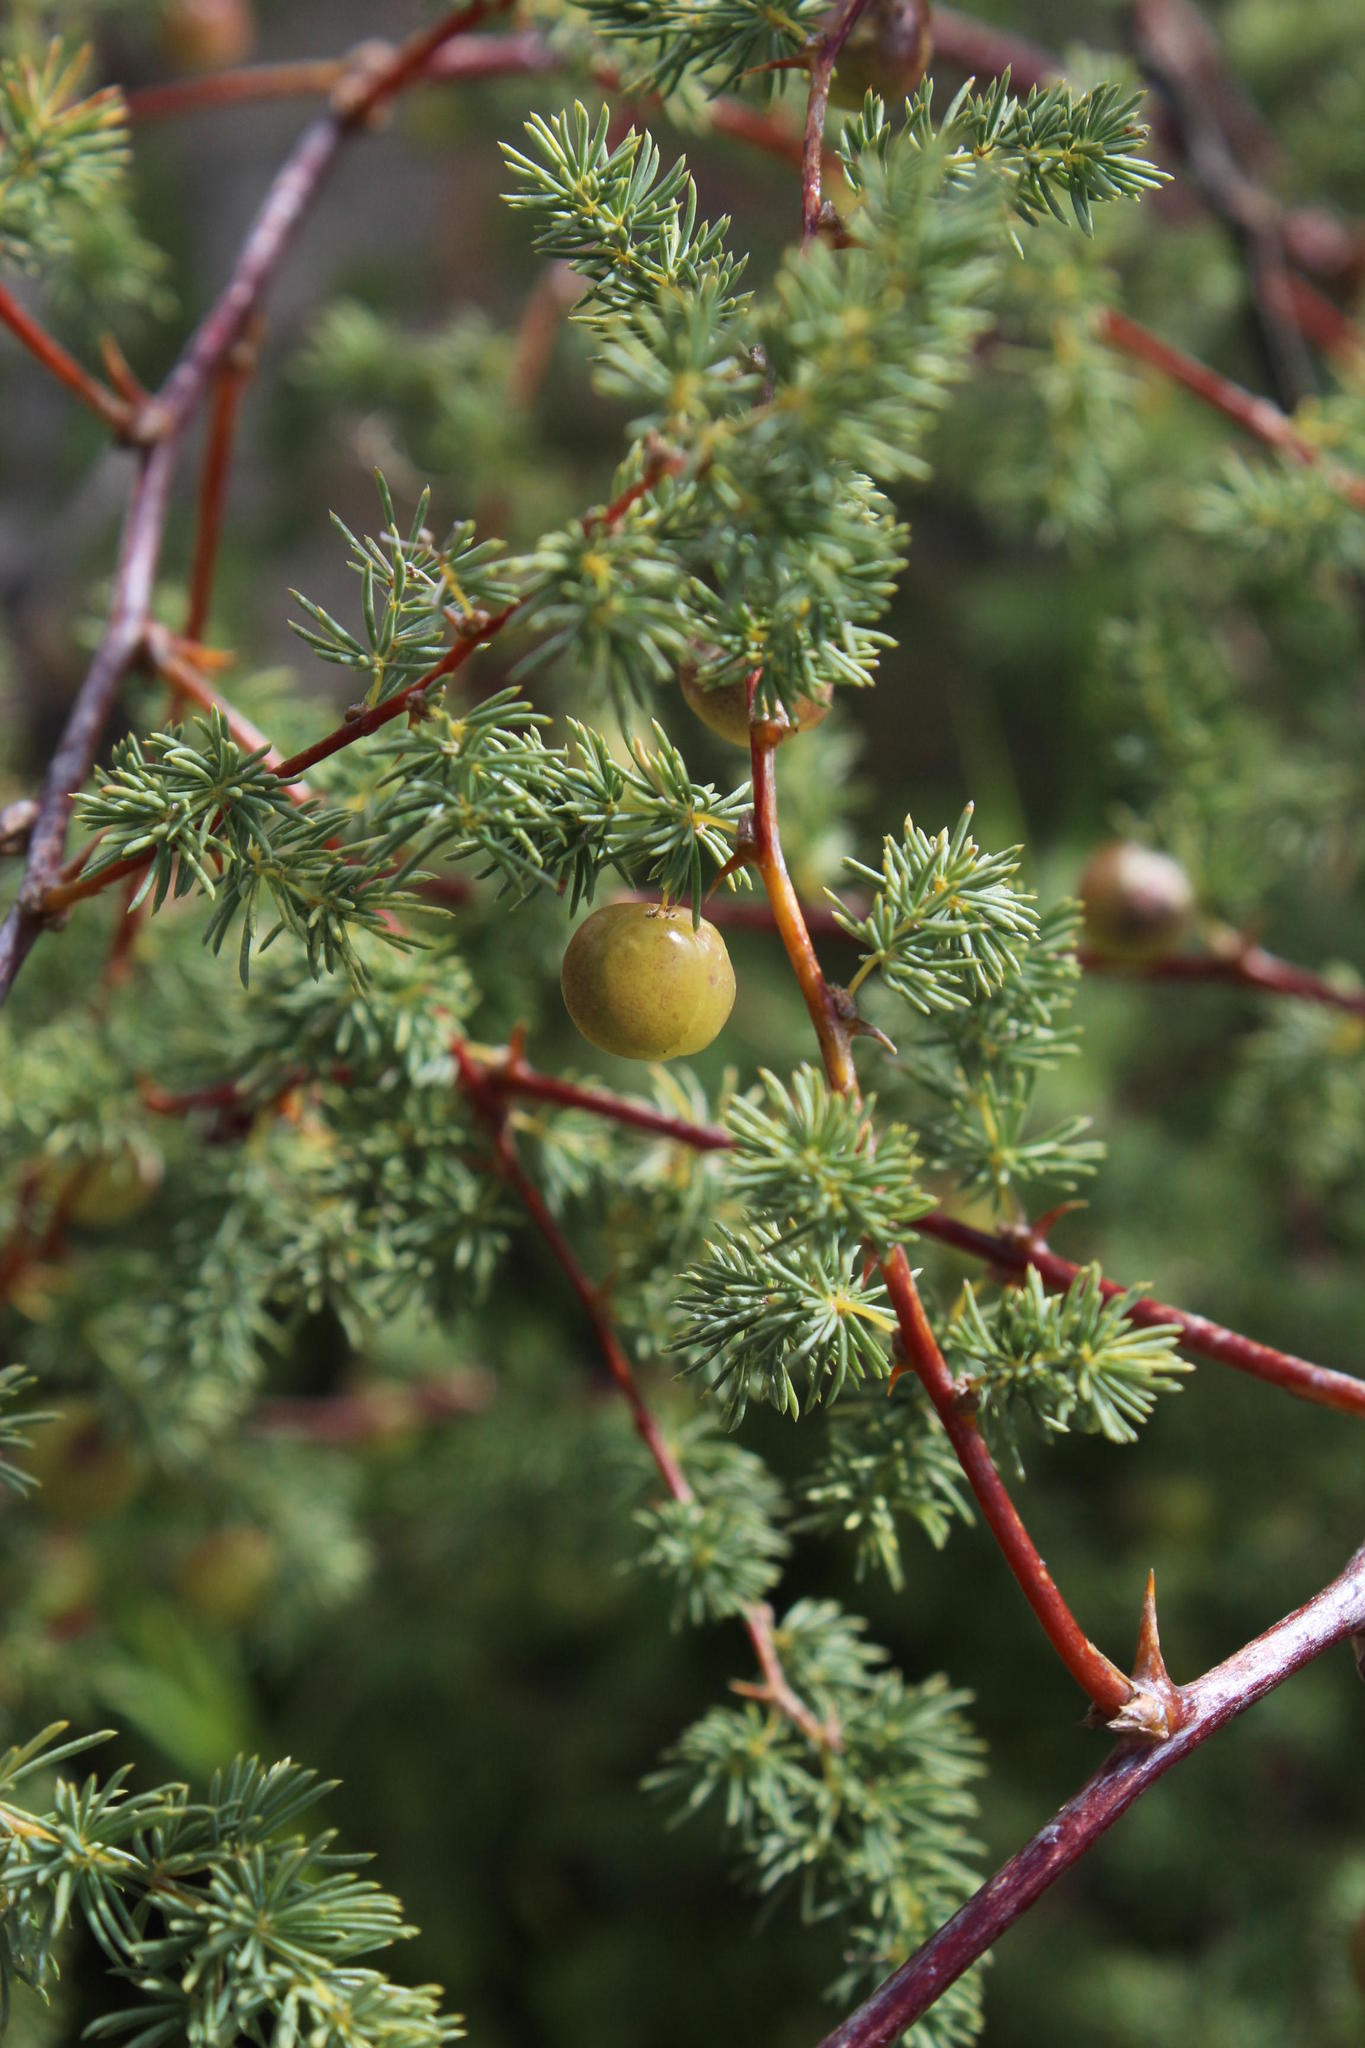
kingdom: Plantae
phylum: Tracheophyta
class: Liliopsida
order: Asparagales
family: Asparagaceae
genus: Asparagus
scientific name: Asparagus rubicundus
